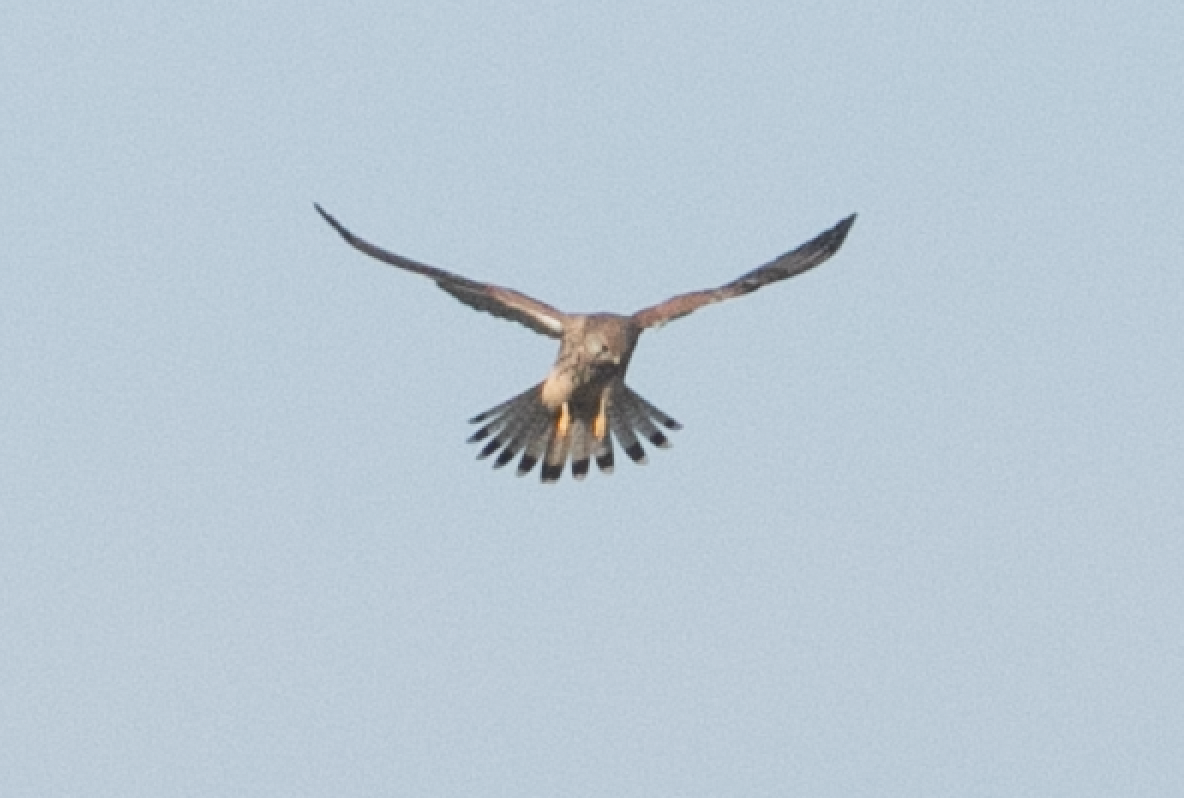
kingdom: Animalia
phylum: Chordata
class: Aves
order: Falconiformes
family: Falconidae
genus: Falco
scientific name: Falco tinnunculus
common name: Common kestrel
